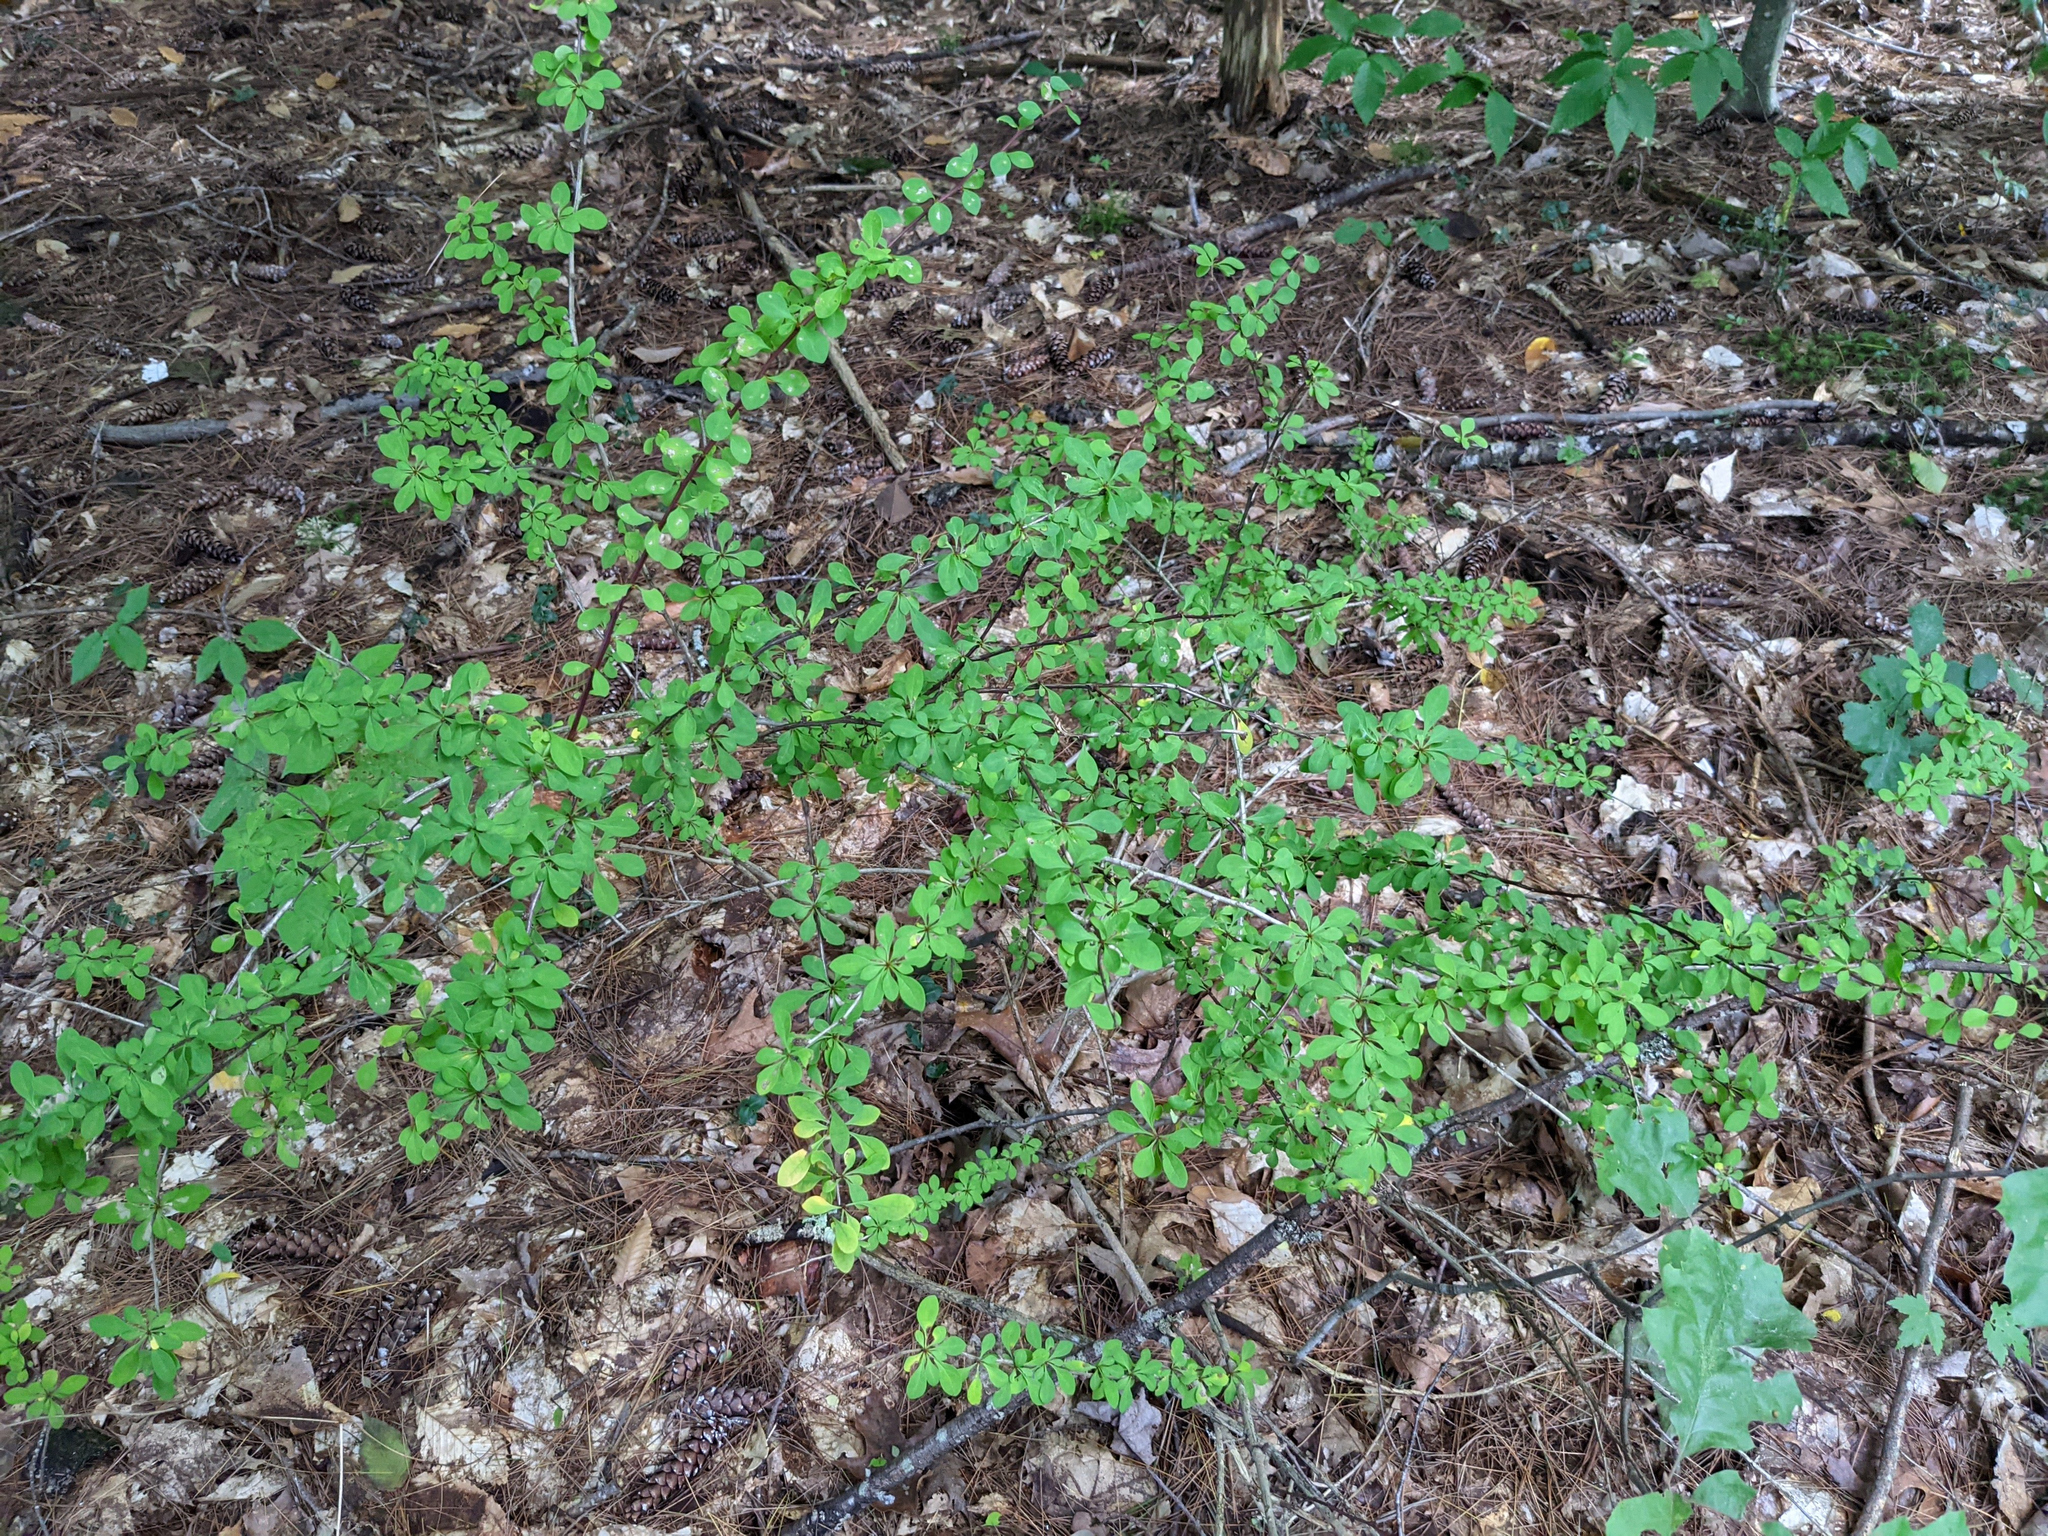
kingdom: Plantae
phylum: Tracheophyta
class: Magnoliopsida
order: Ranunculales
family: Berberidaceae
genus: Berberis
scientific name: Berberis thunbergii
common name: Japanese barberry
